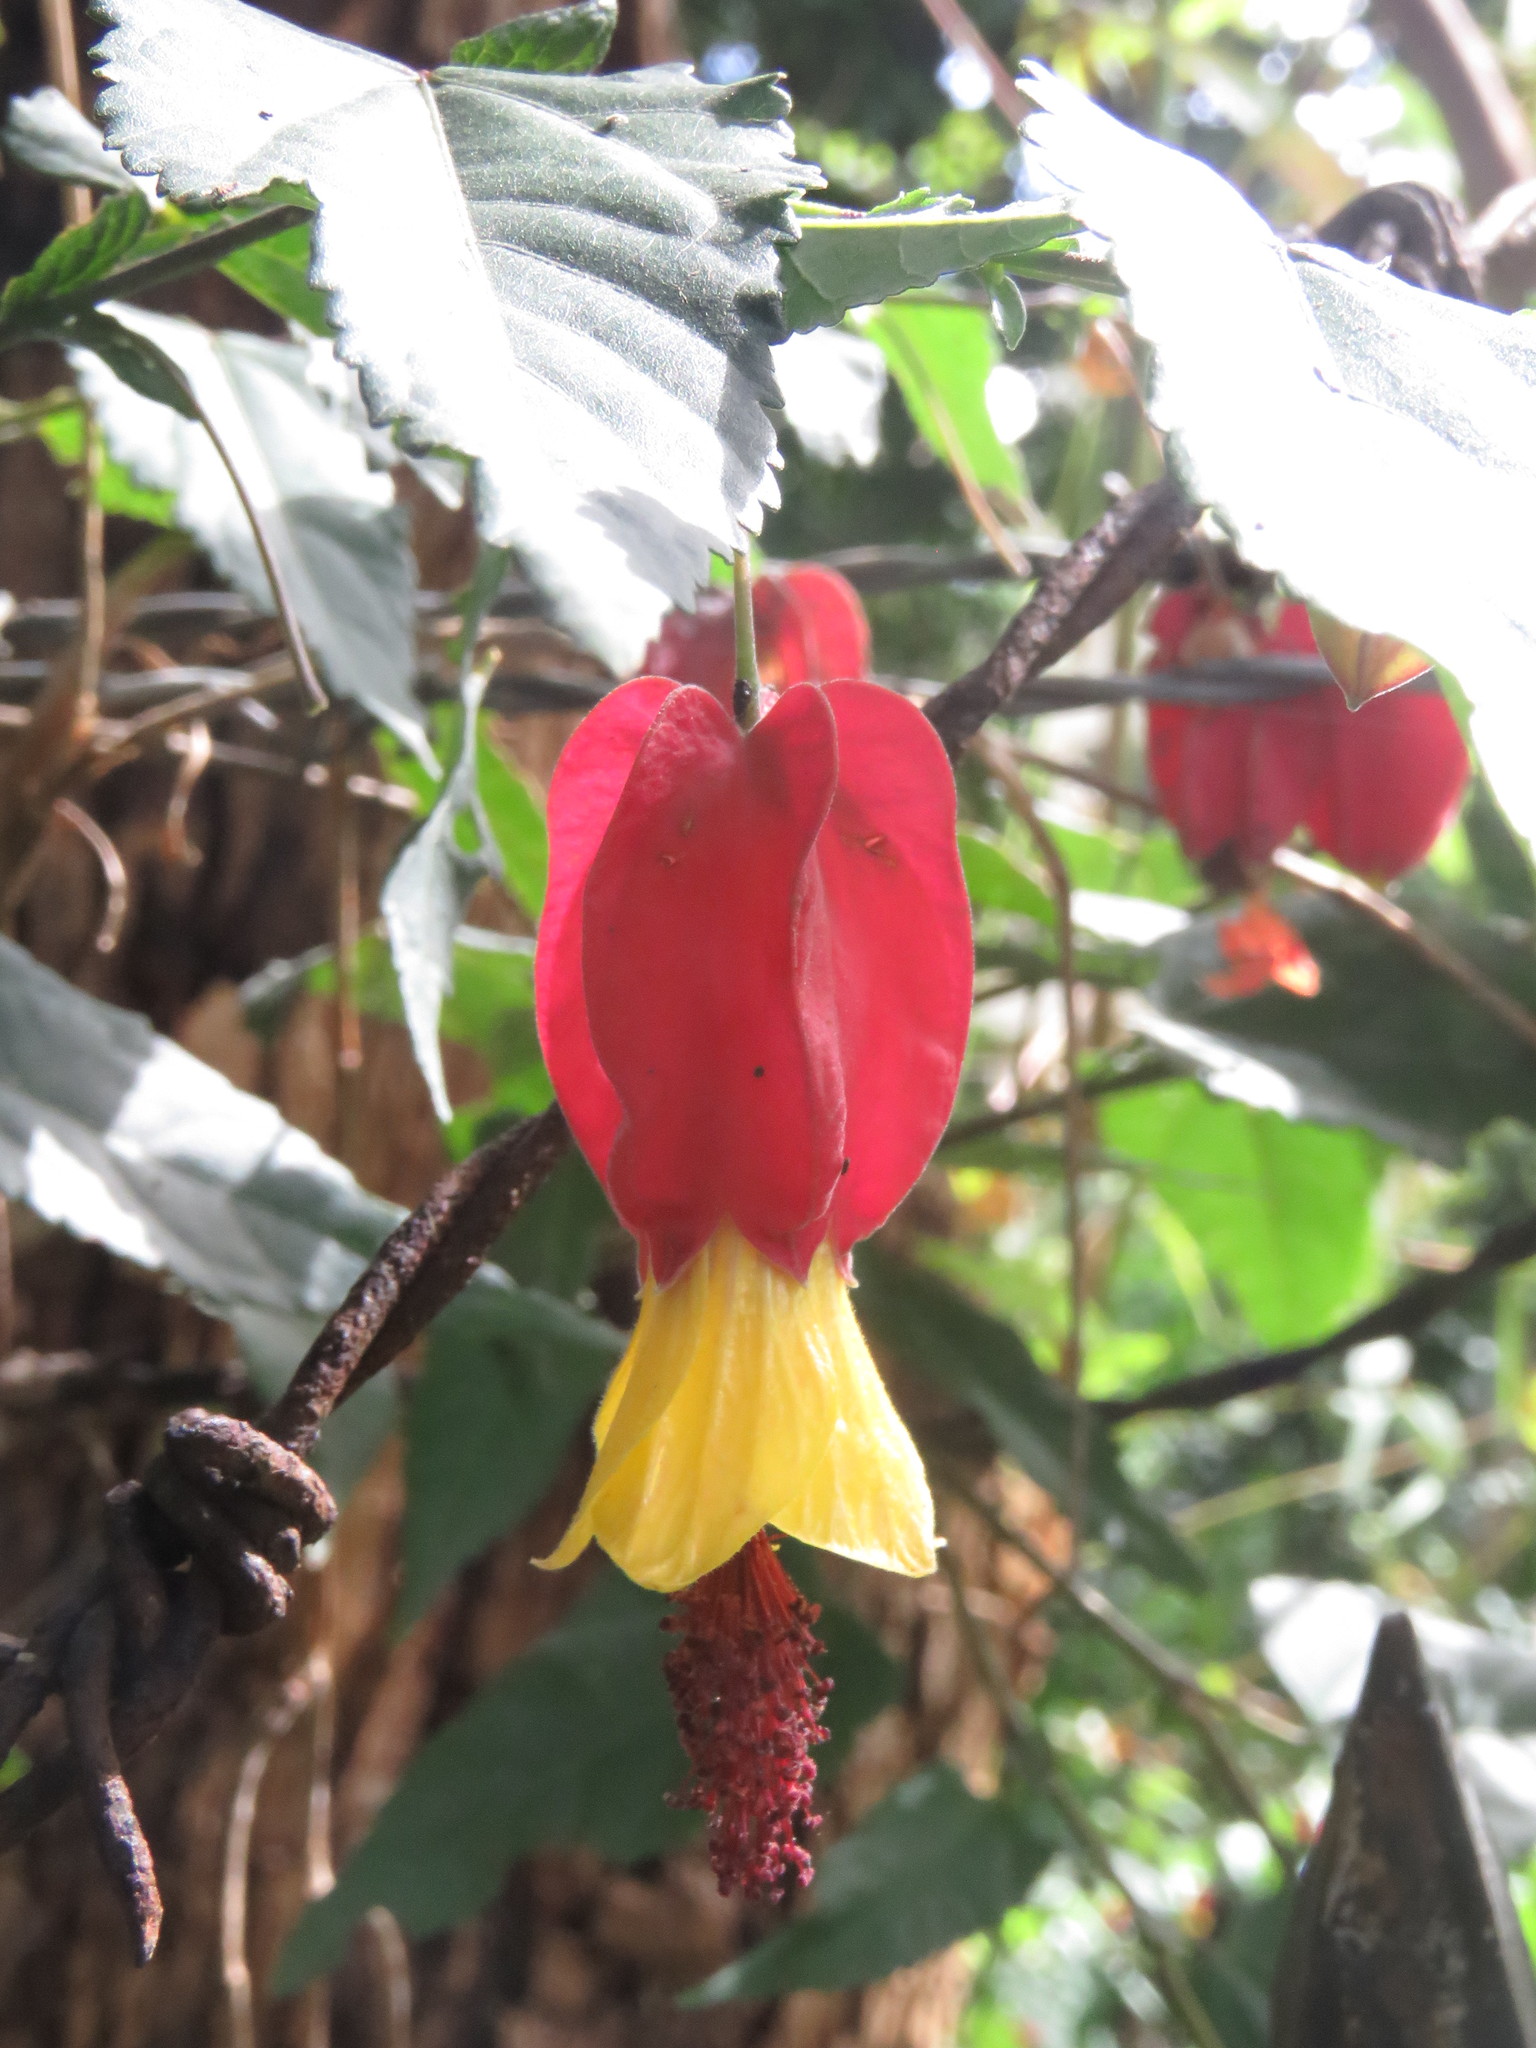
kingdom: Plantae
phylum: Tracheophyta
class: Magnoliopsida
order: Malvales
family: Malvaceae
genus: Callianthe
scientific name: Callianthe megapotamica
